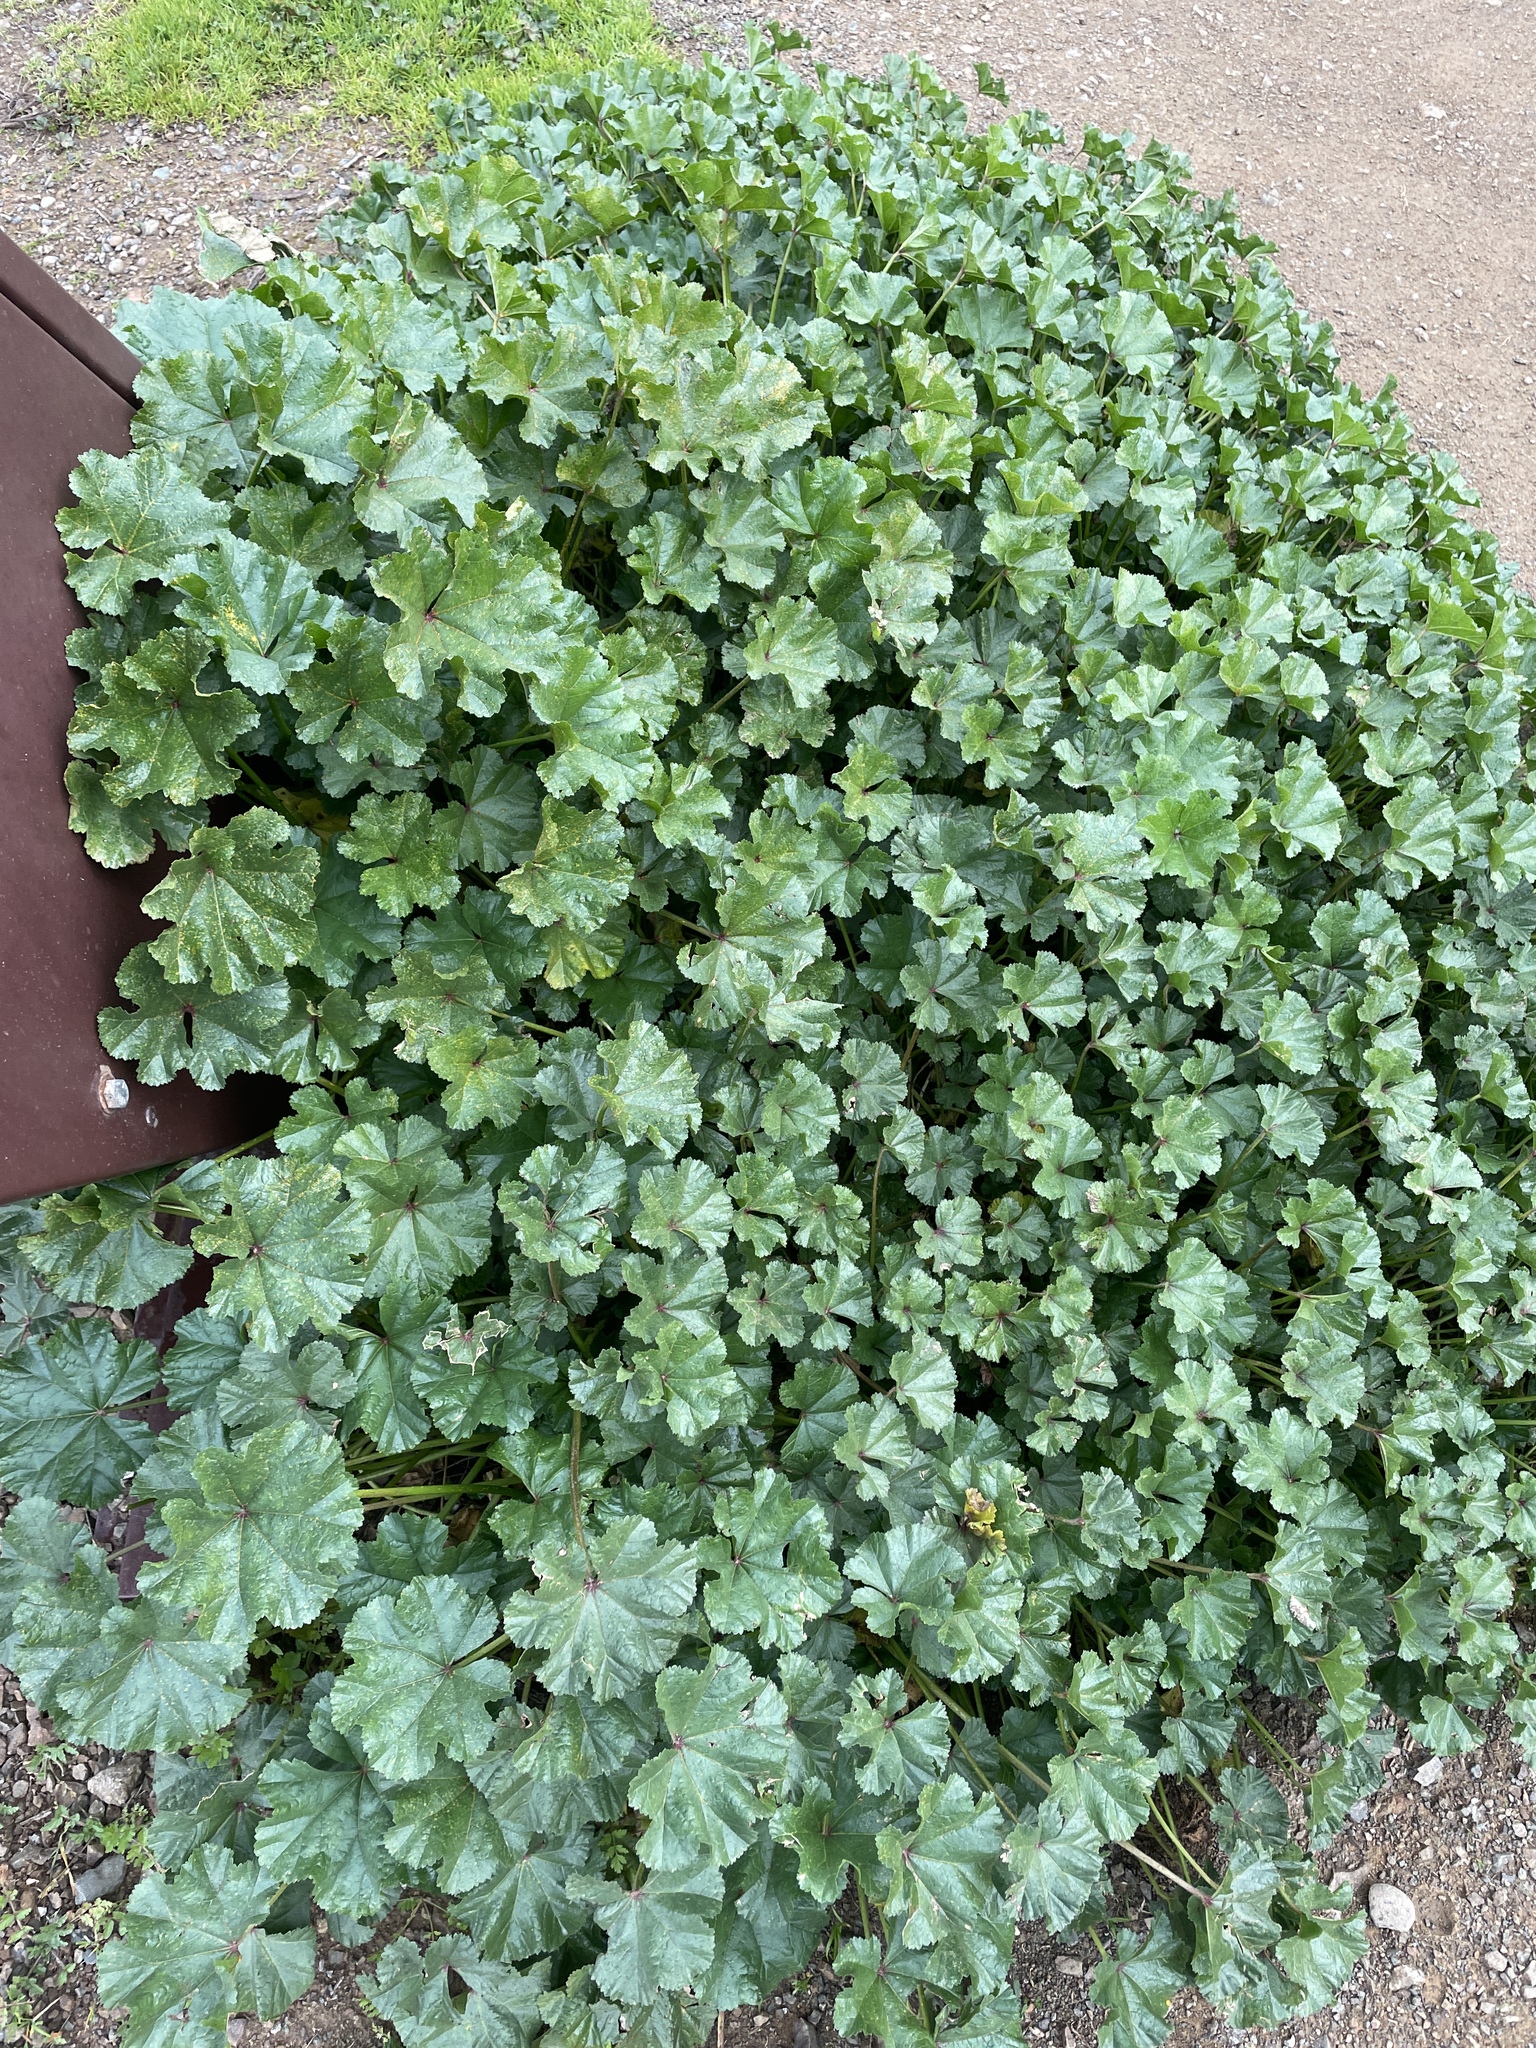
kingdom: Plantae
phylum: Tracheophyta
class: Magnoliopsida
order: Malvales
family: Malvaceae
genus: Malva
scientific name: Malva
